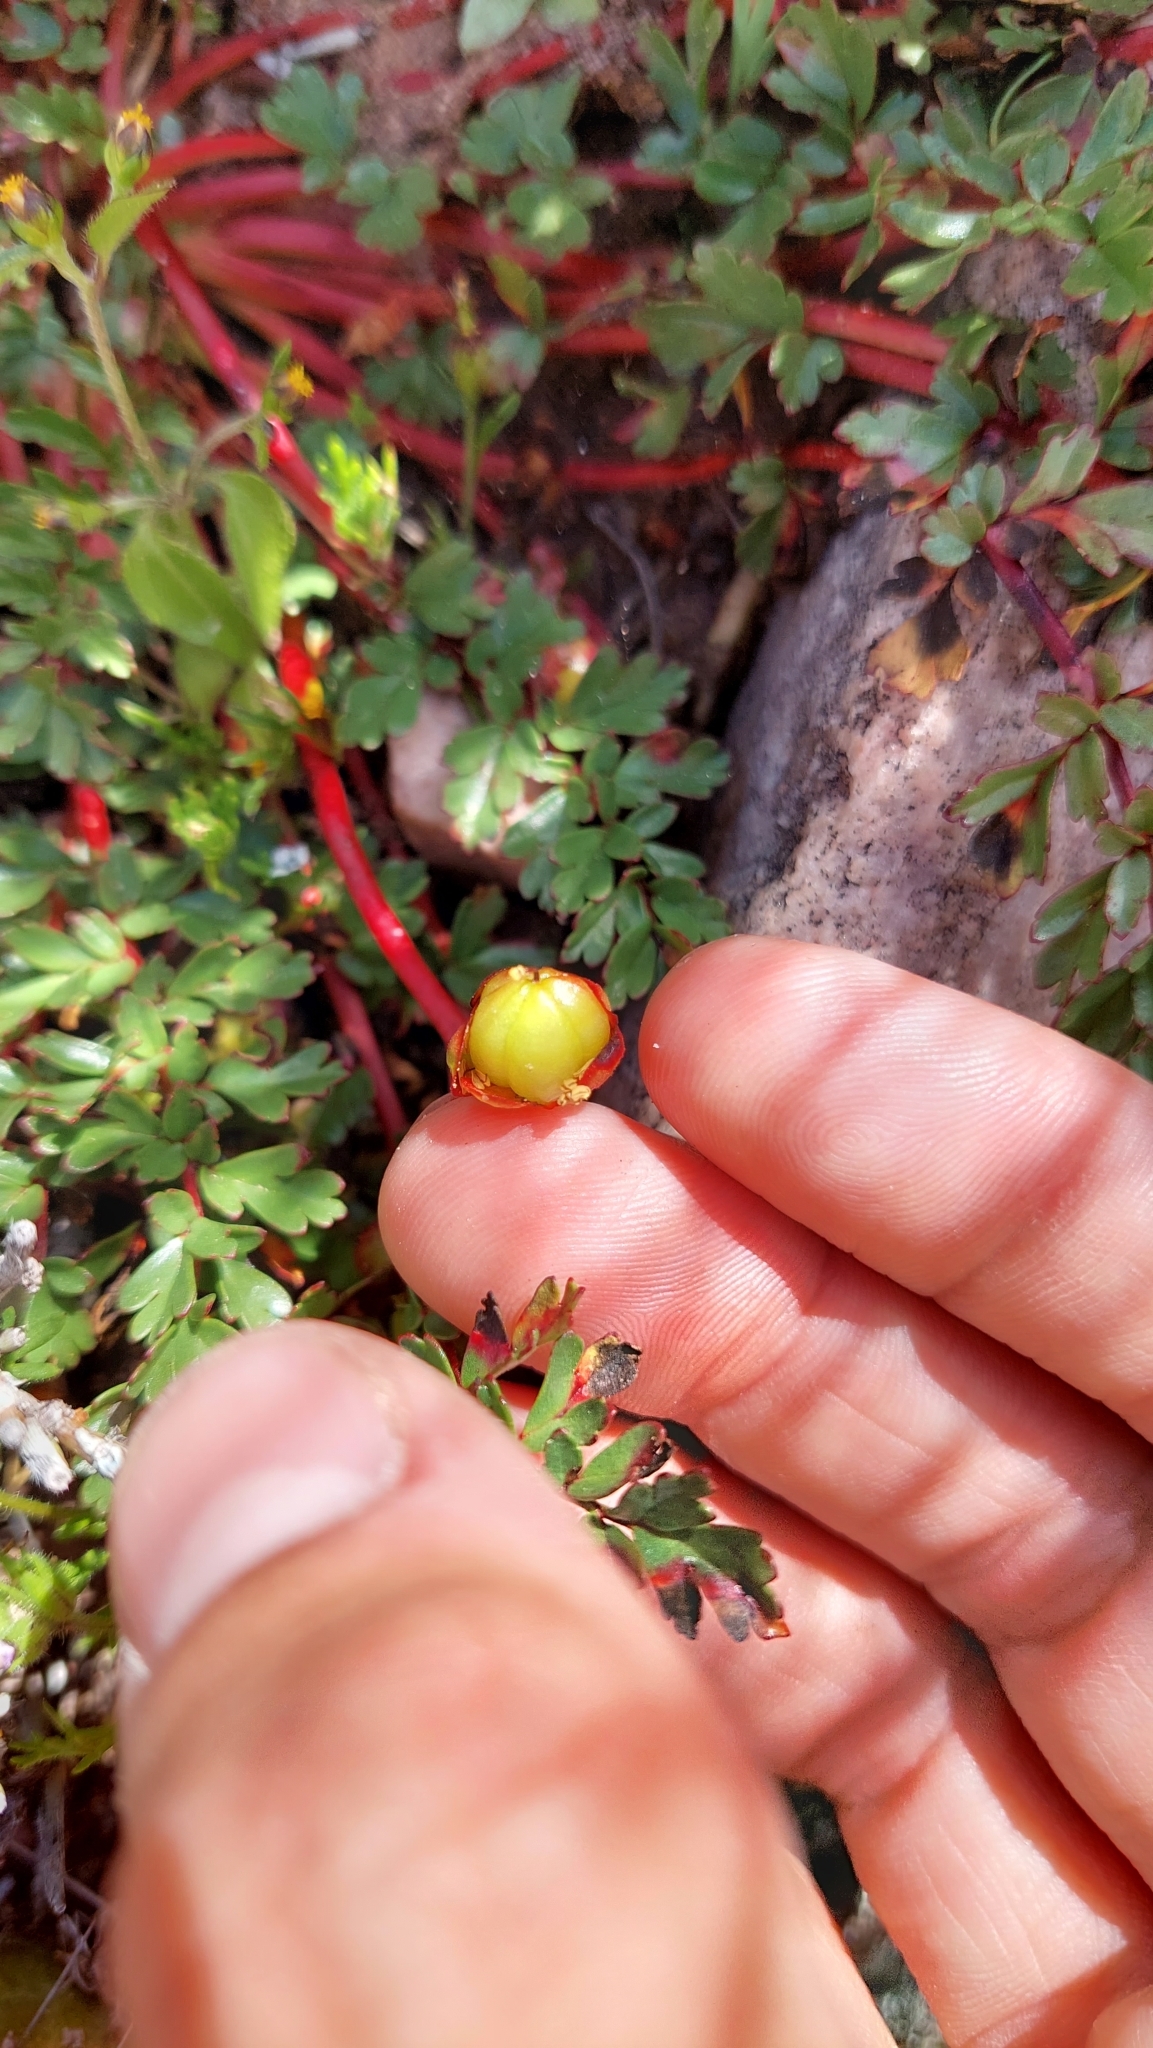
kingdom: Plantae
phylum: Tracheophyta
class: Magnoliopsida
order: Geraniales
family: Hypseocharitaceae
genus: Hypseocharis
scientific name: Hypseocharis pimpinellifolia
